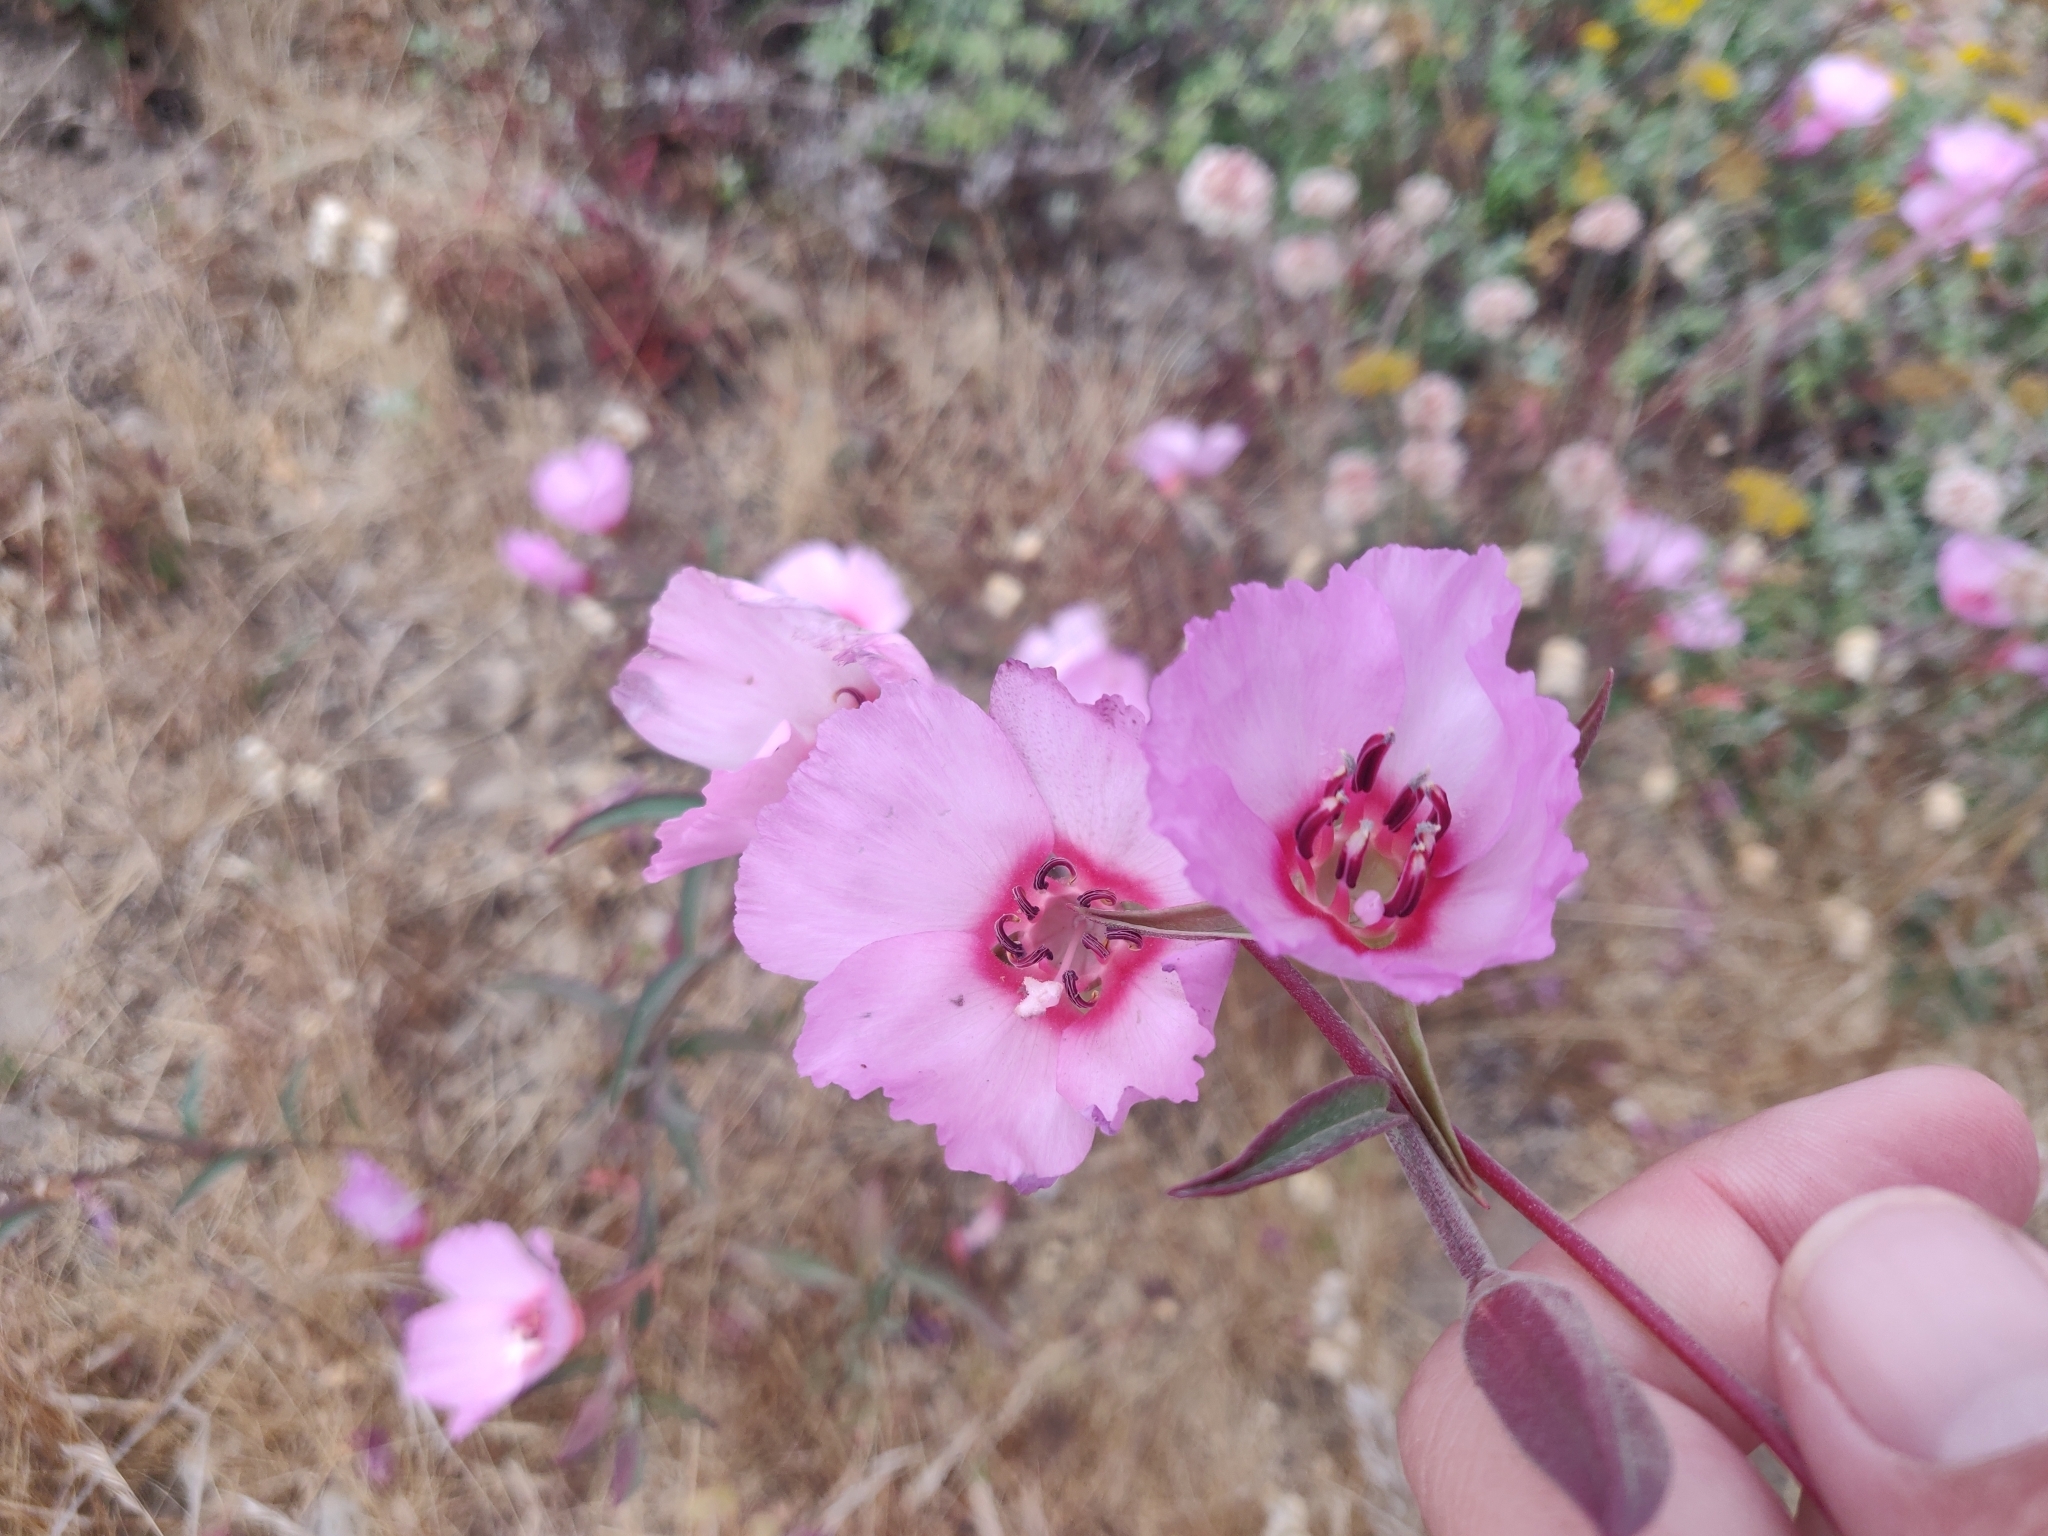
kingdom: Plantae
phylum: Tracheophyta
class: Magnoliopsida
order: Myrtales
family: Onagraceae
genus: Clarkia
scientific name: Clarkia rubicunda
